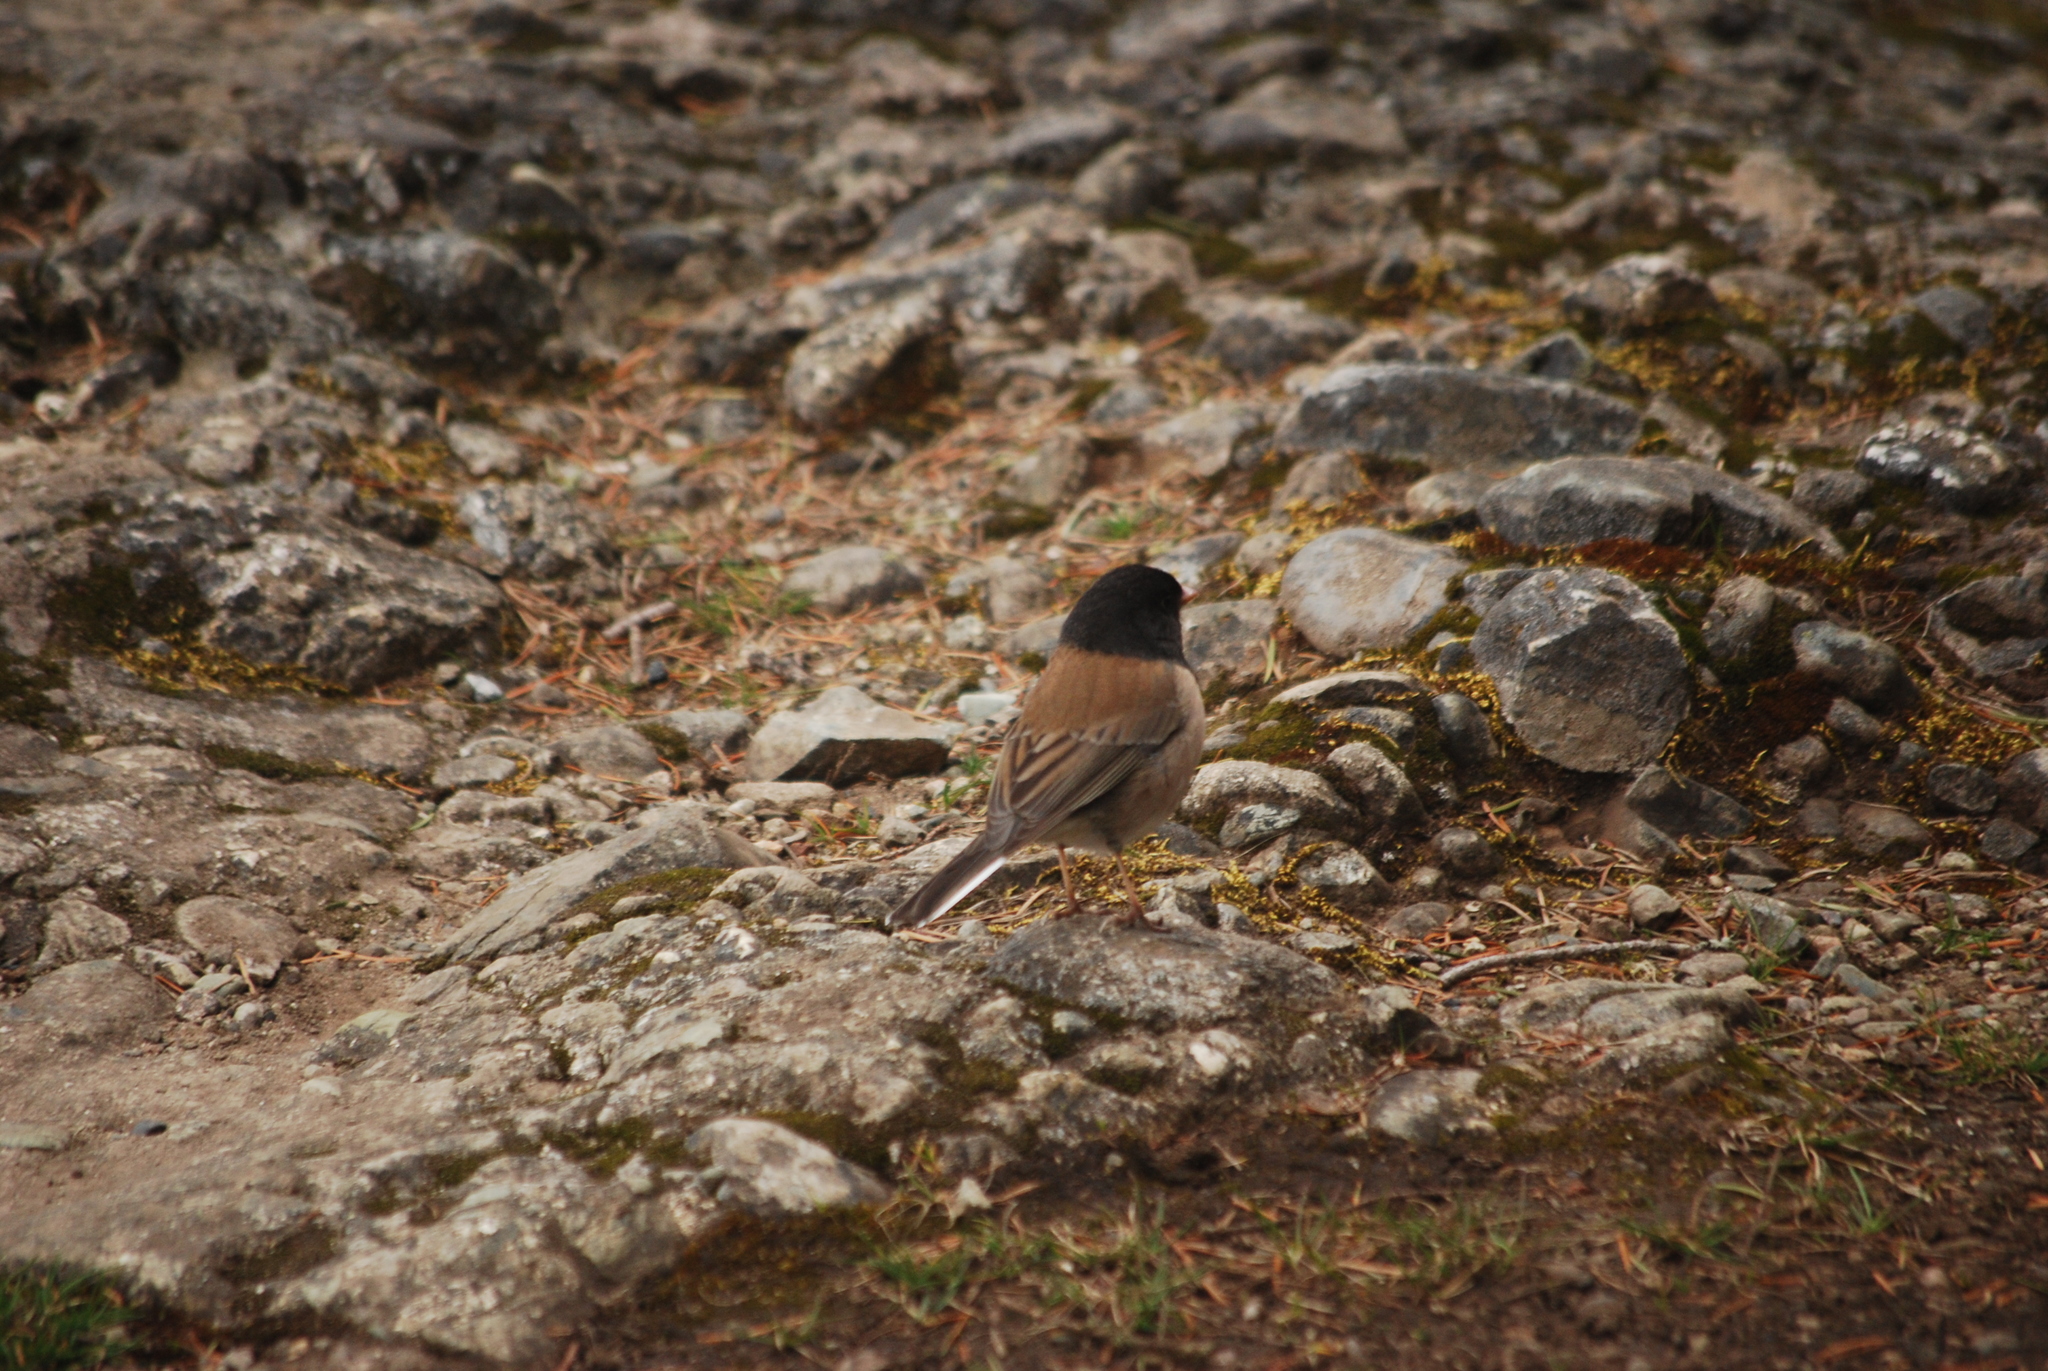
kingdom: Animalia
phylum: Chordata
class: Aves
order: Passeriformes
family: Passerellidae
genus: Junco
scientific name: Junco hyemalis
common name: Dark-eyed junco
